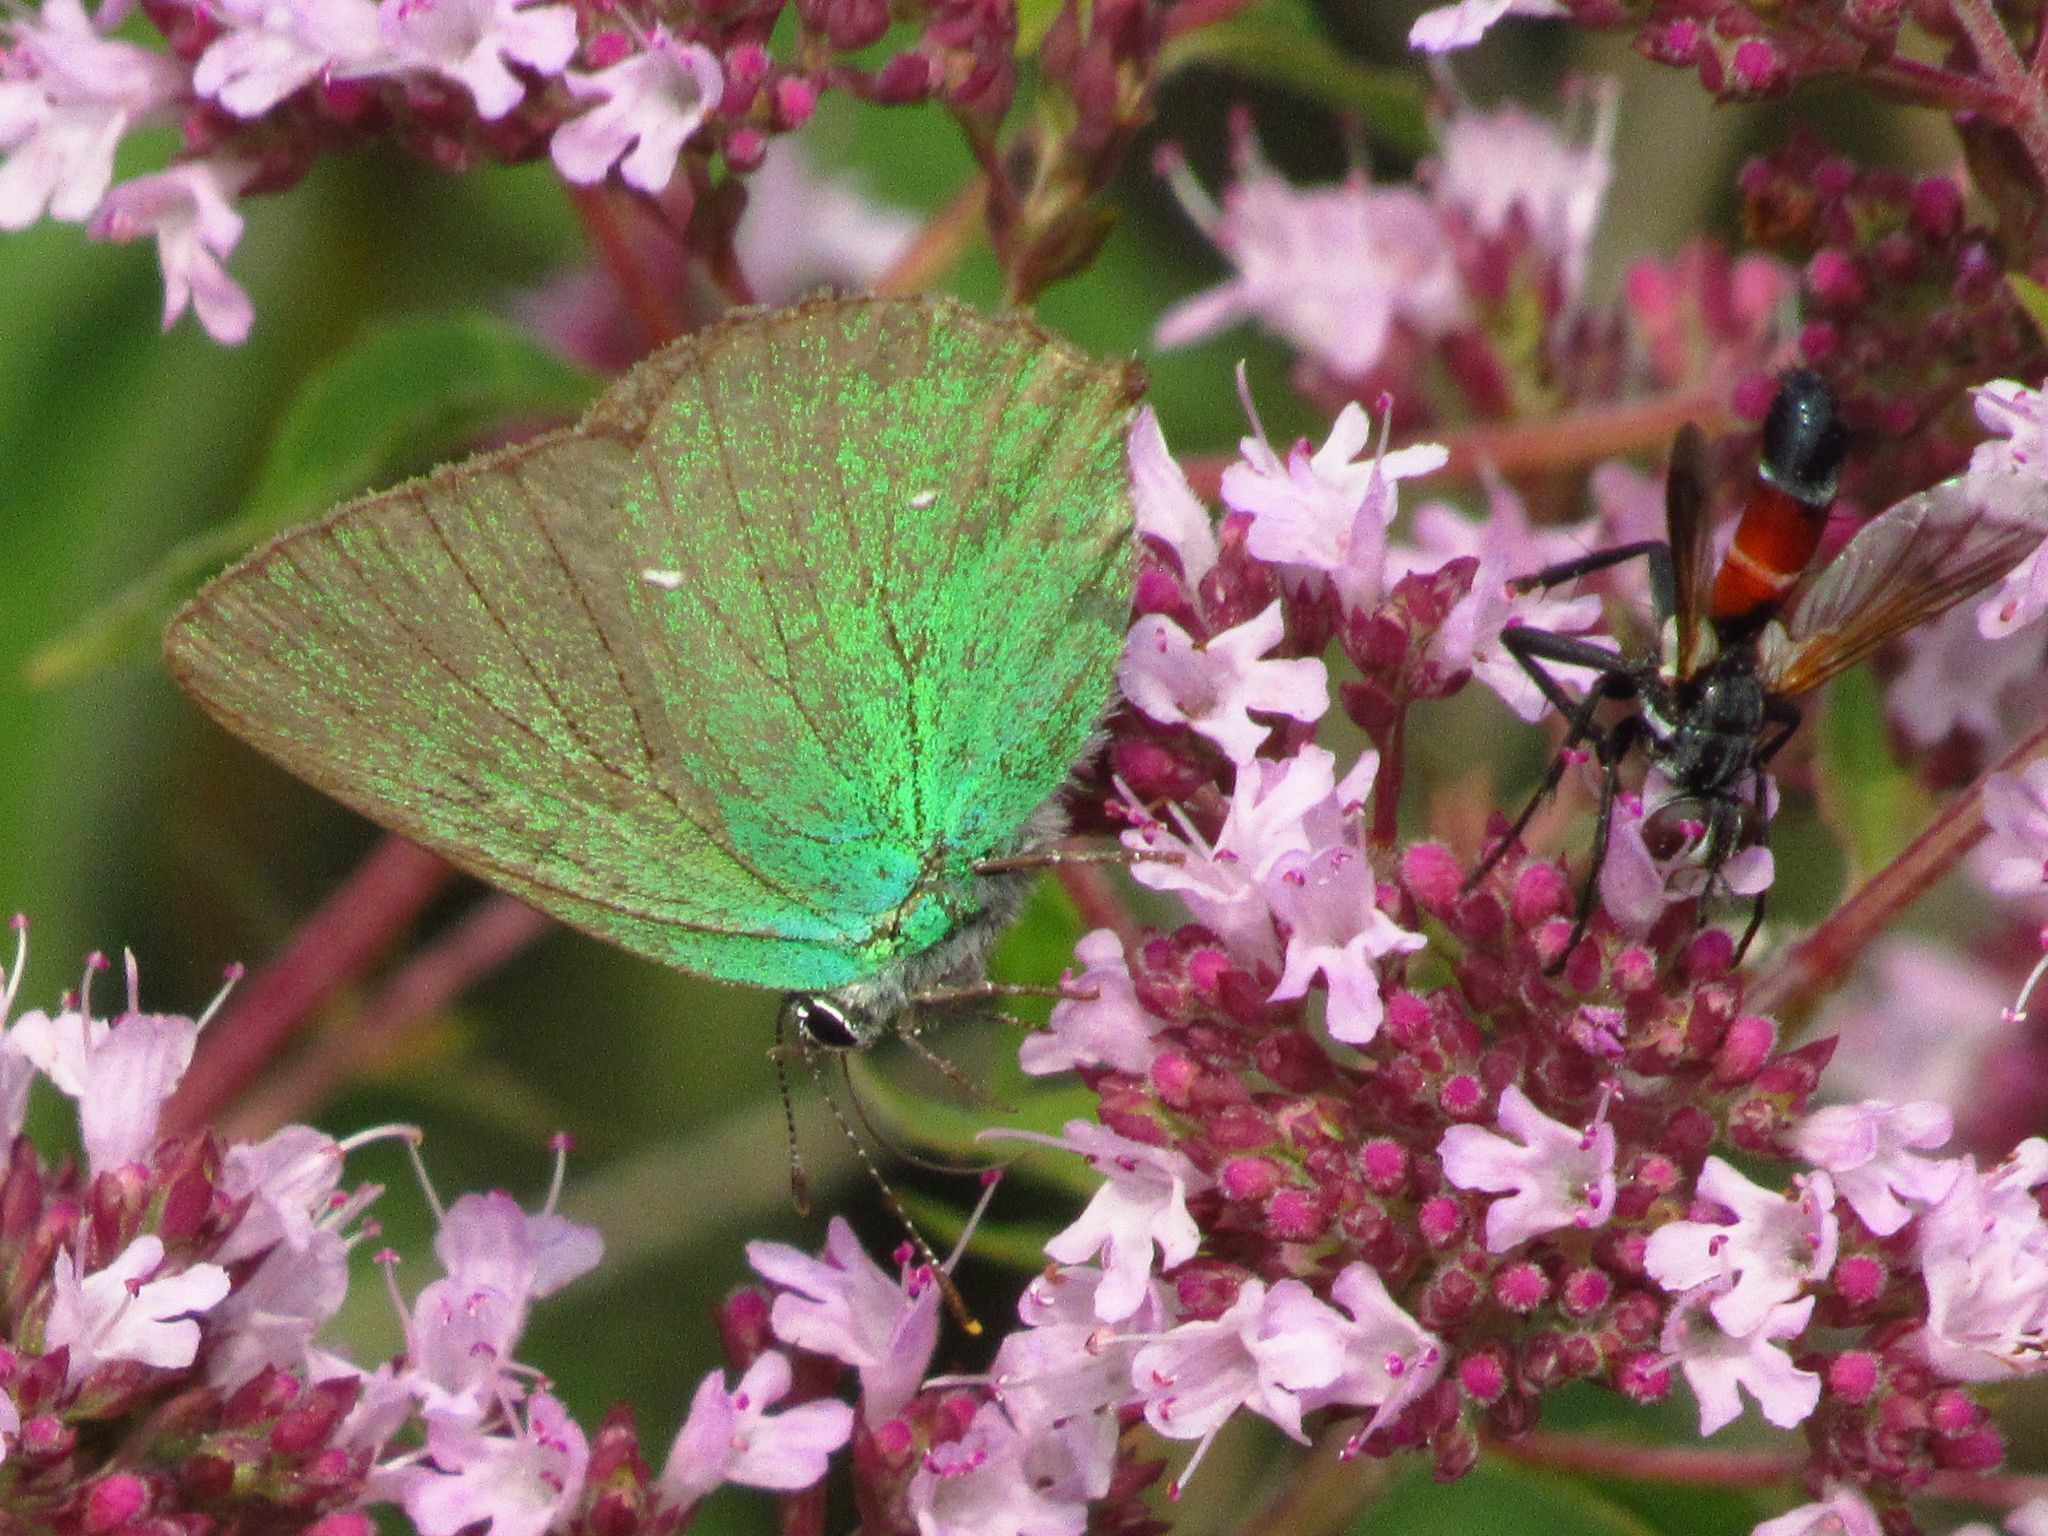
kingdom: Animalia
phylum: Arthropoda
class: Insecta
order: Lepidoptera
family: Lycaenidae
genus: Callophrys
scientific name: Callophrys rubi
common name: Green hairstreak
